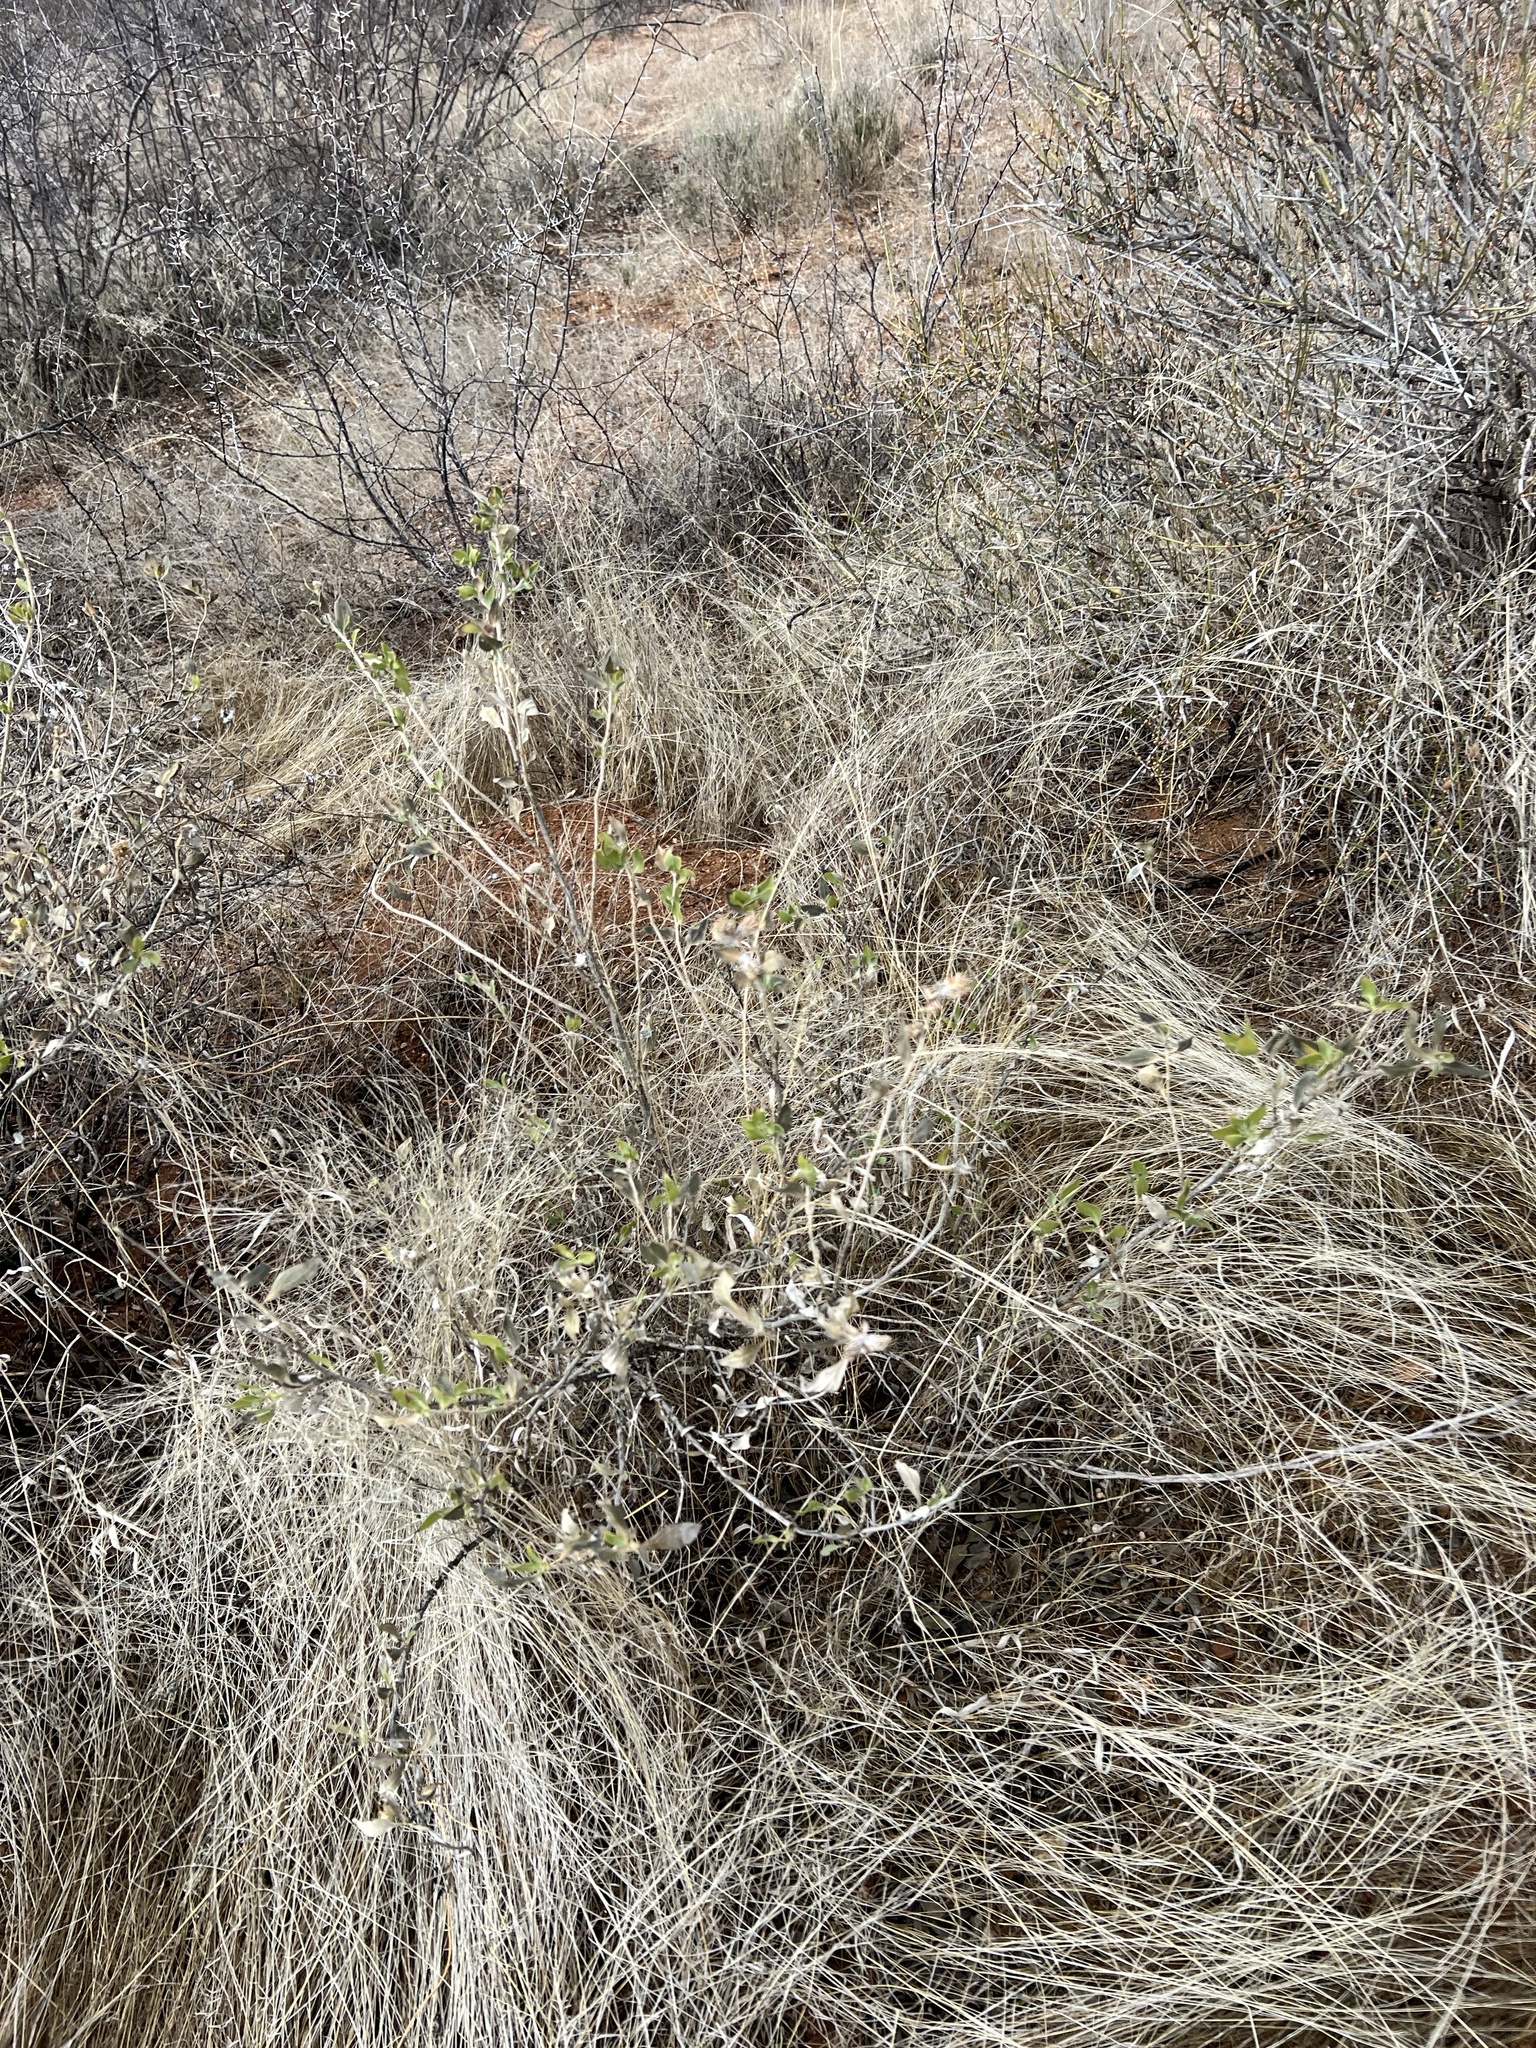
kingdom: Plantae
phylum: Tracheophyta
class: Magnoliopsida
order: Asterales
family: Asteraceae
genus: Flourensia
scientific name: Flourensia cernua
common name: Varnishbush
